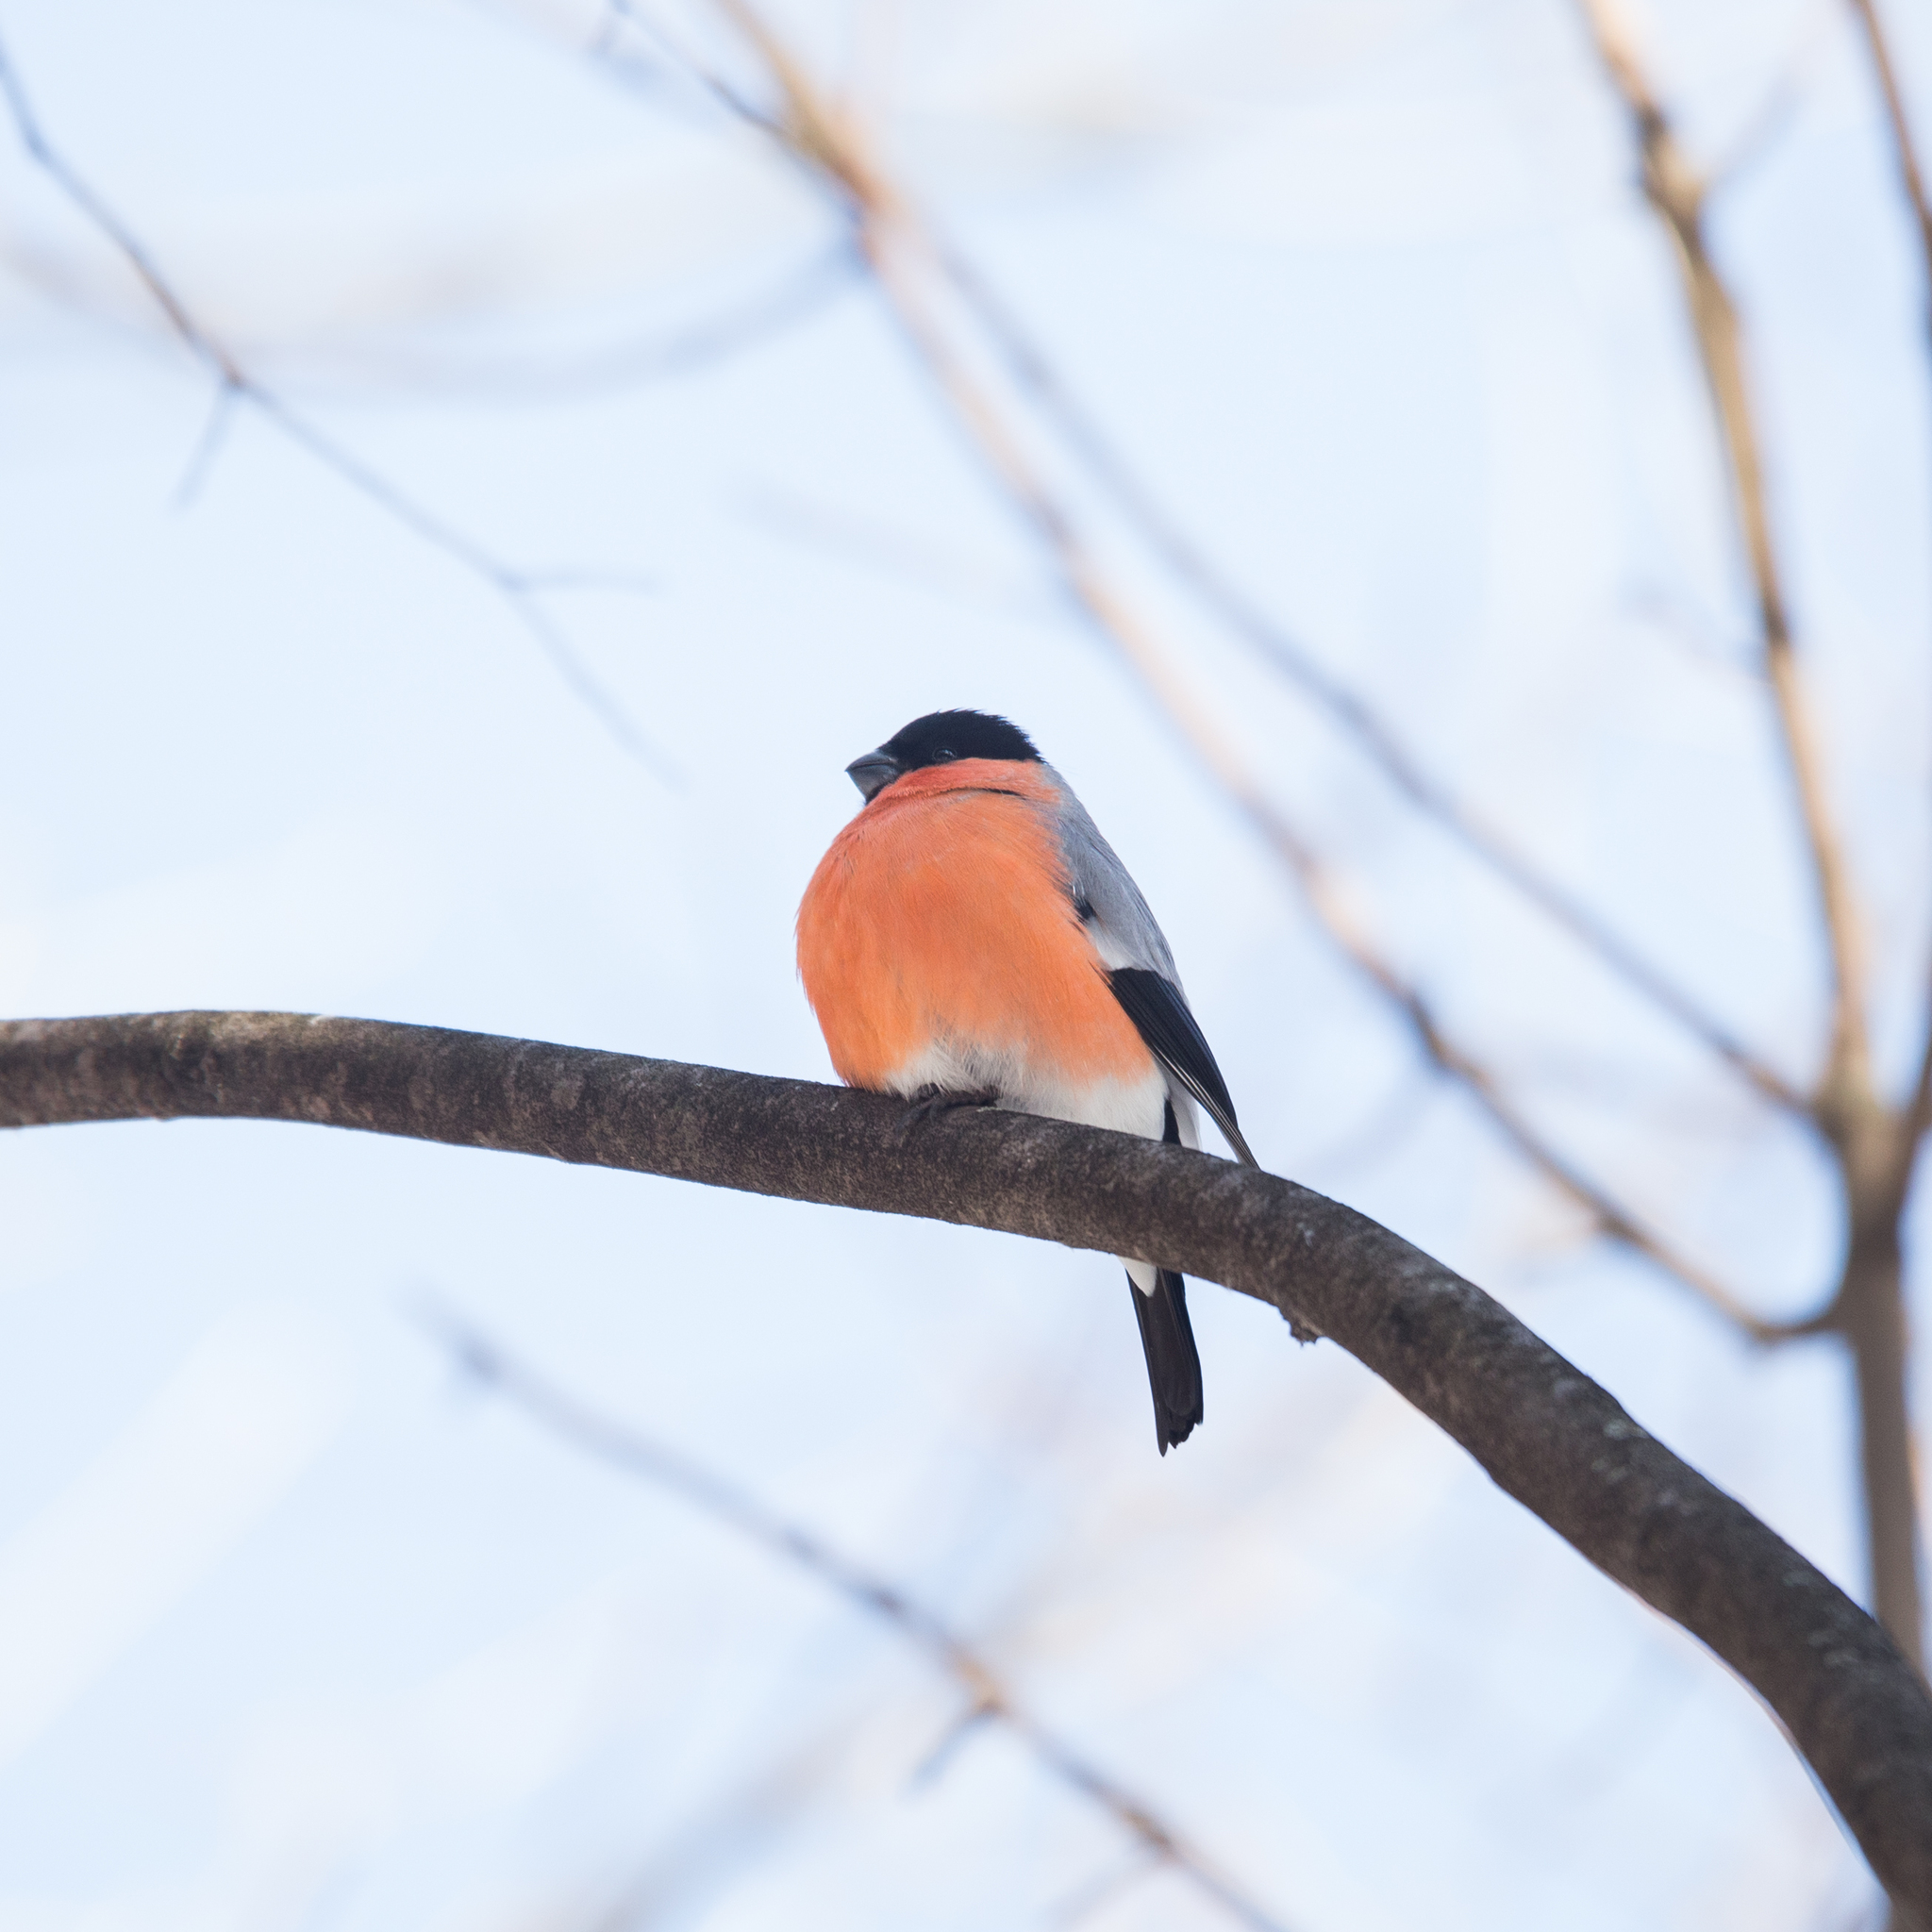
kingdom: Animalia
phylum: Chordata
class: Aves
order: Passeriformes
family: Fringillidae
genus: Pyrrhula
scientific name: Pyrrhula pyrrhula
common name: Eurasian bullfinch
